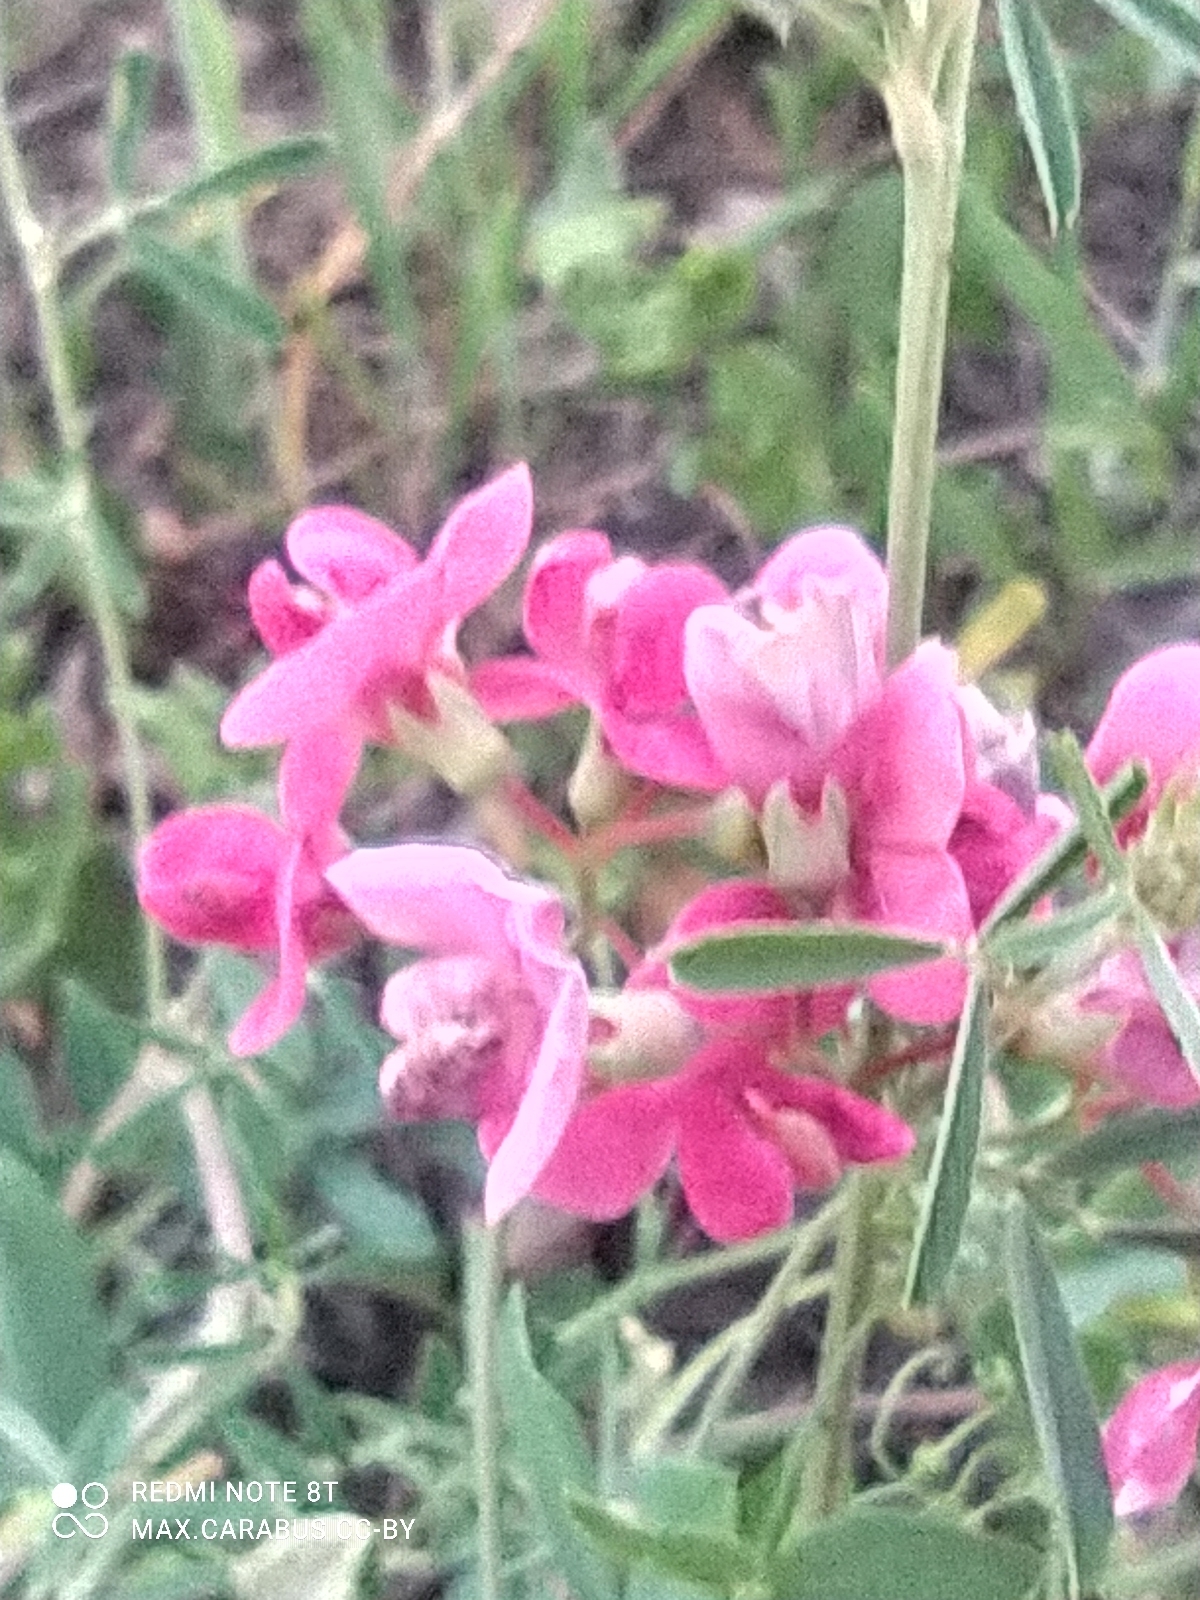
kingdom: Plantae
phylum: Tracheophyta
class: Magnoliopsida
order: Fabales
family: Fabaceae
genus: Lathyrus
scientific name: Lathyrus tuberosus
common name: Tuberous pea
